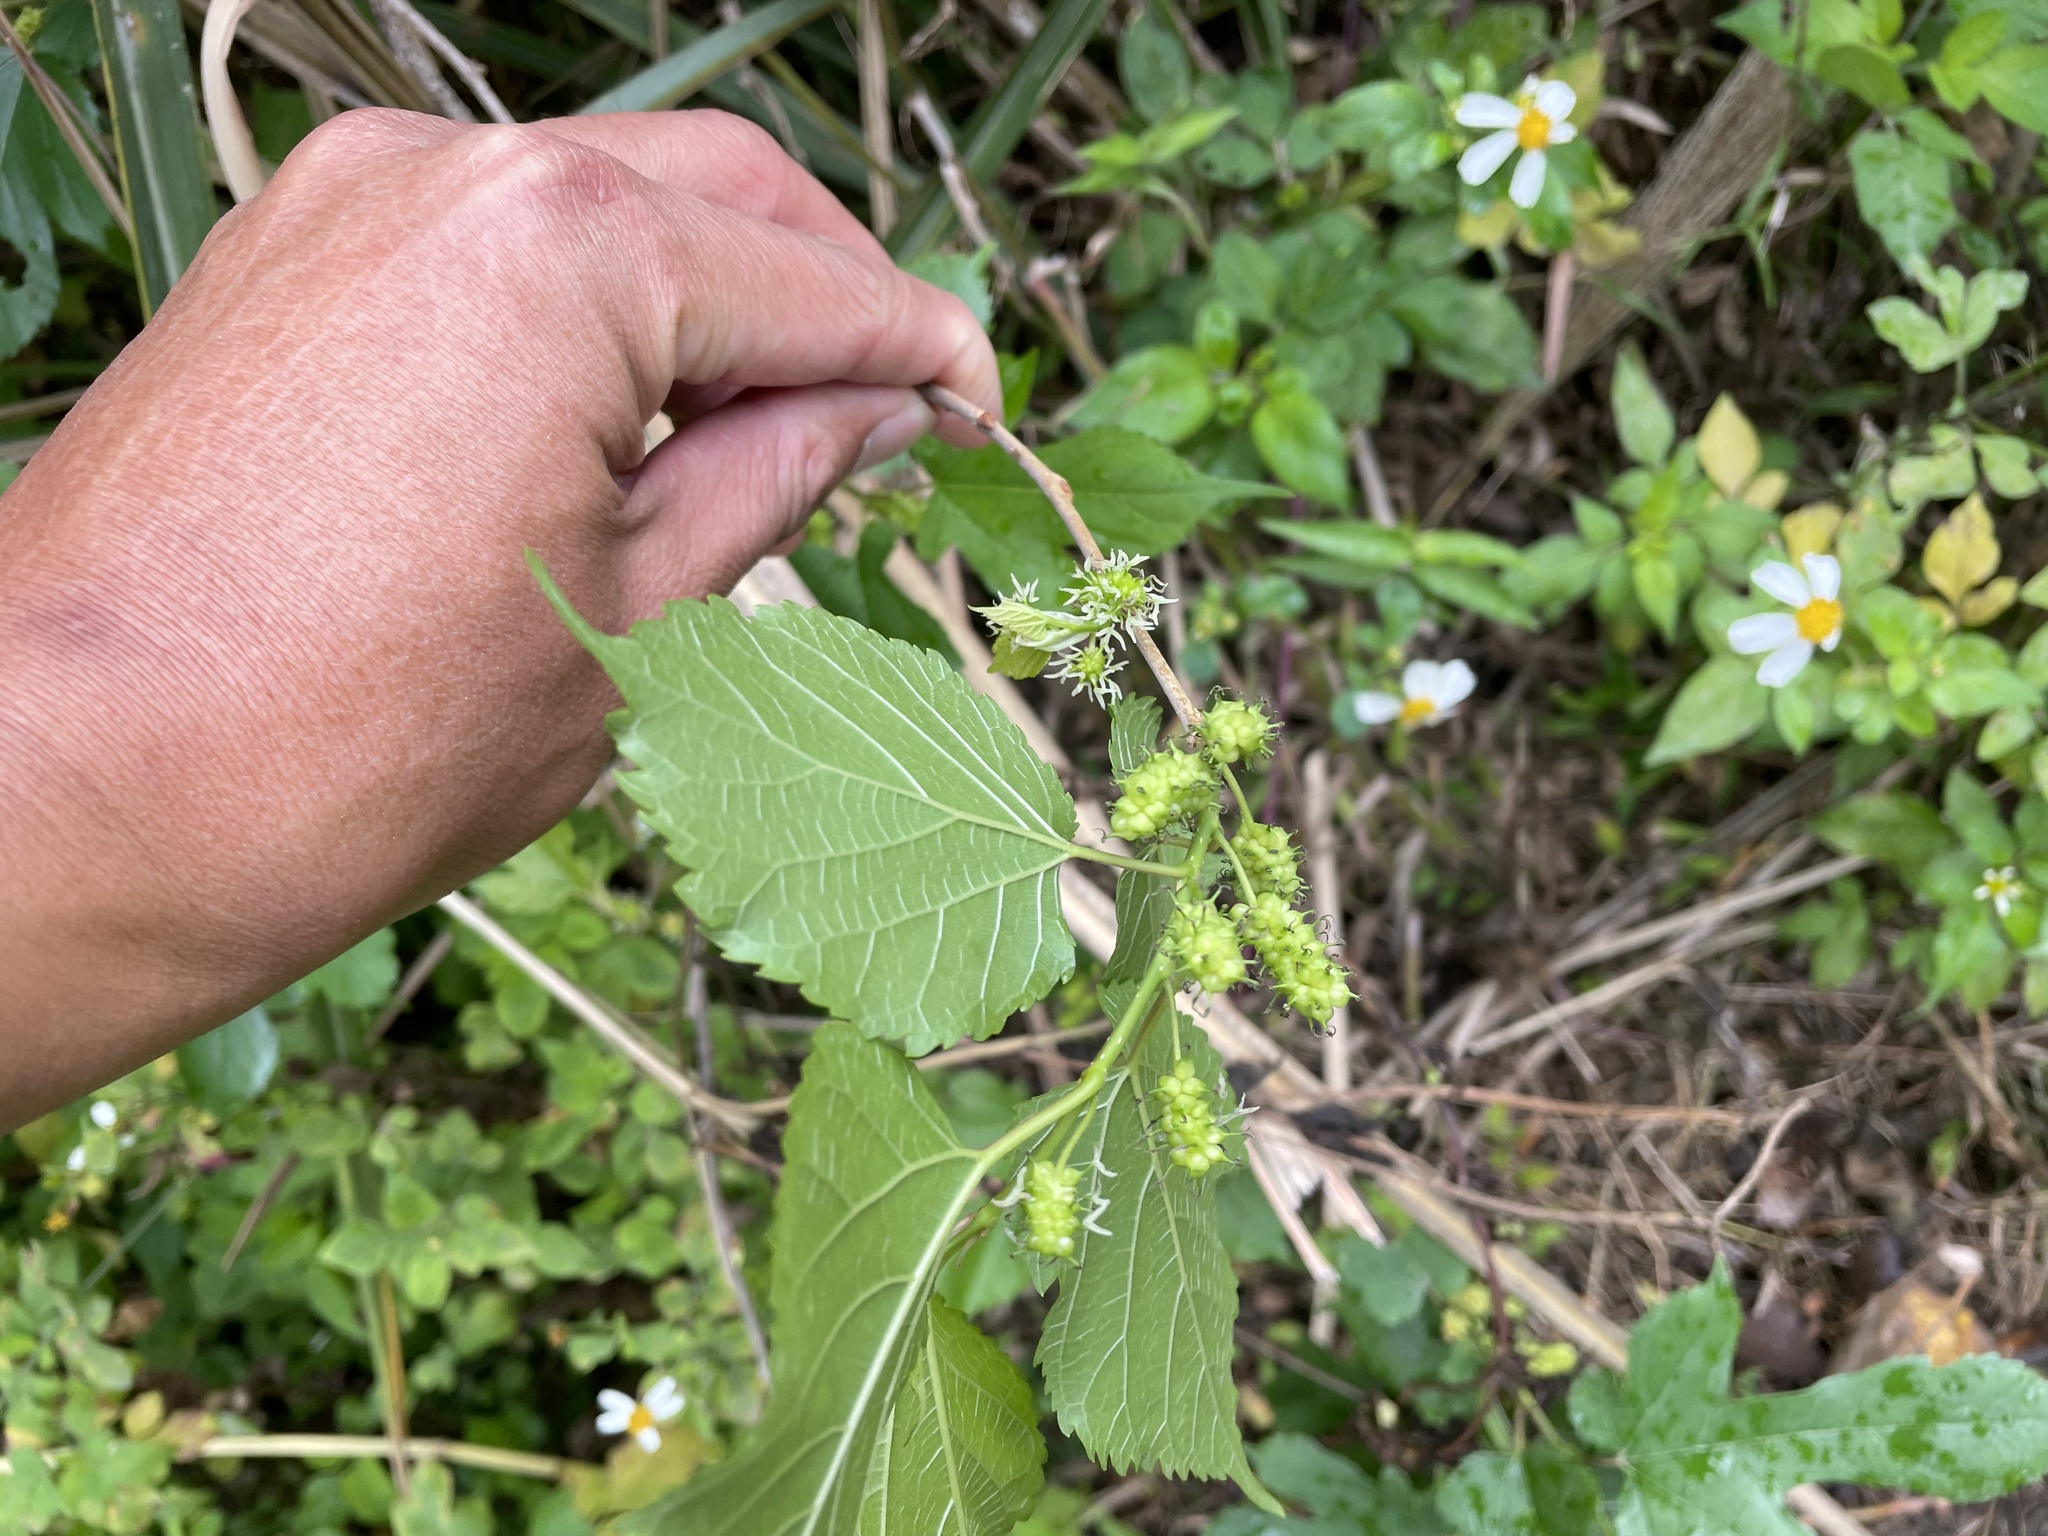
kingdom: Plantae
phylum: Tracheophyta
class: Magnoliopsida
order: Rosales
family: Moraceae
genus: Morus
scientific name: Morus indica
